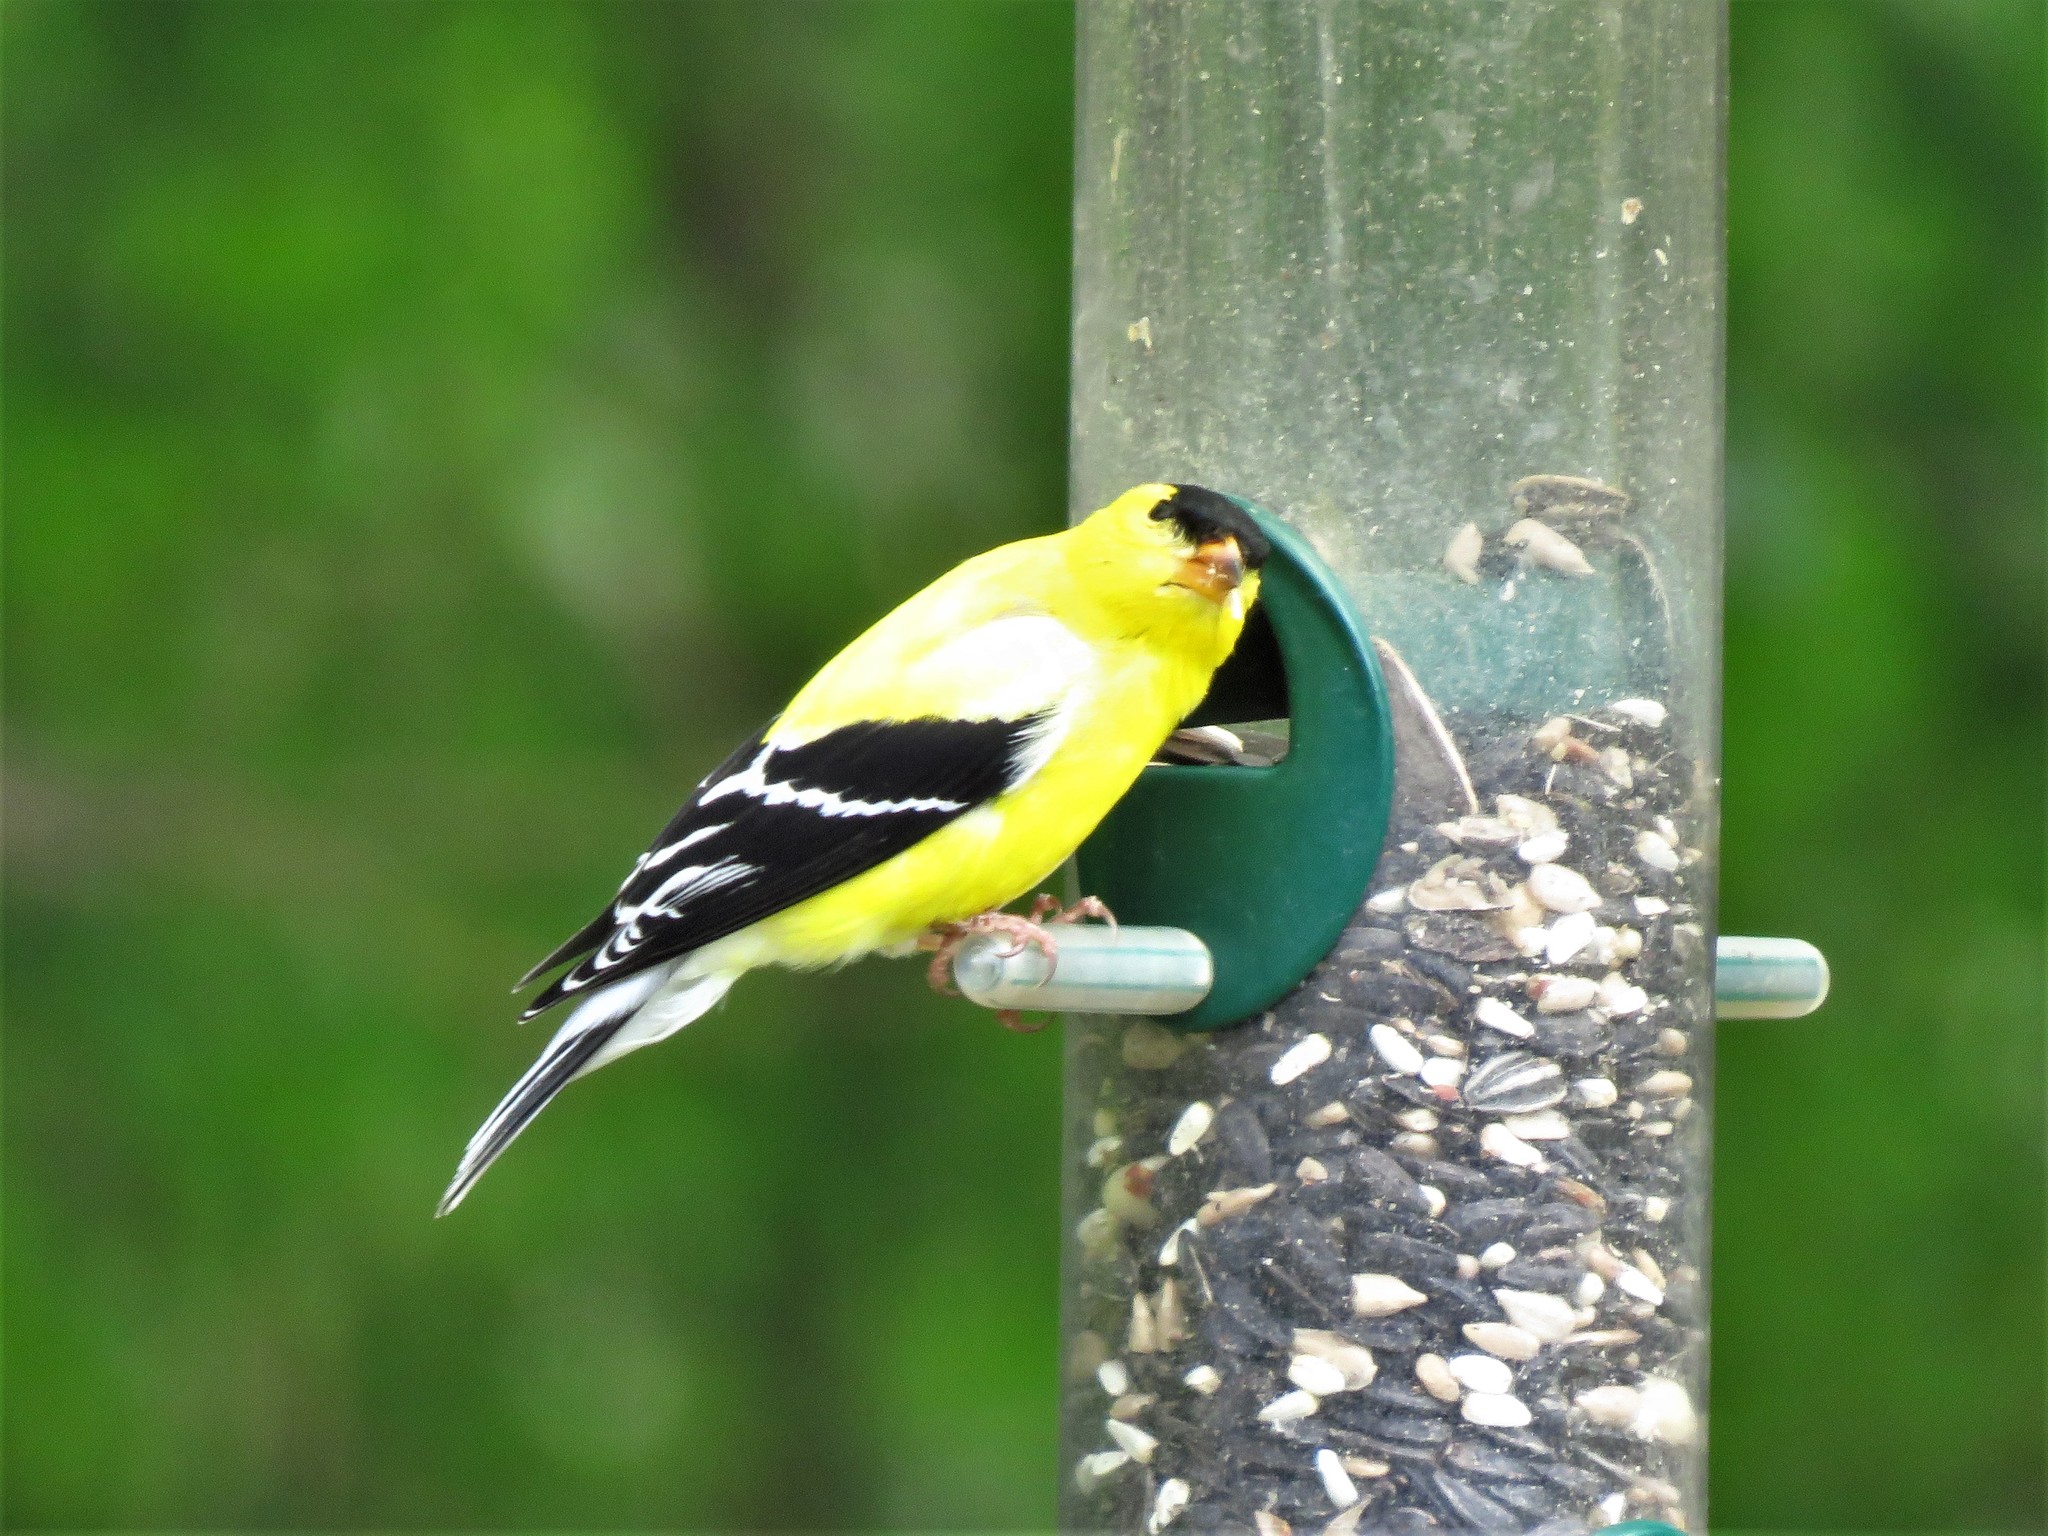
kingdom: Animalia
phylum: Chordata
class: Aves
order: Passeriformes
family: Fringillidae
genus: Spinus
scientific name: Spinus tristis
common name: American goldfinch
